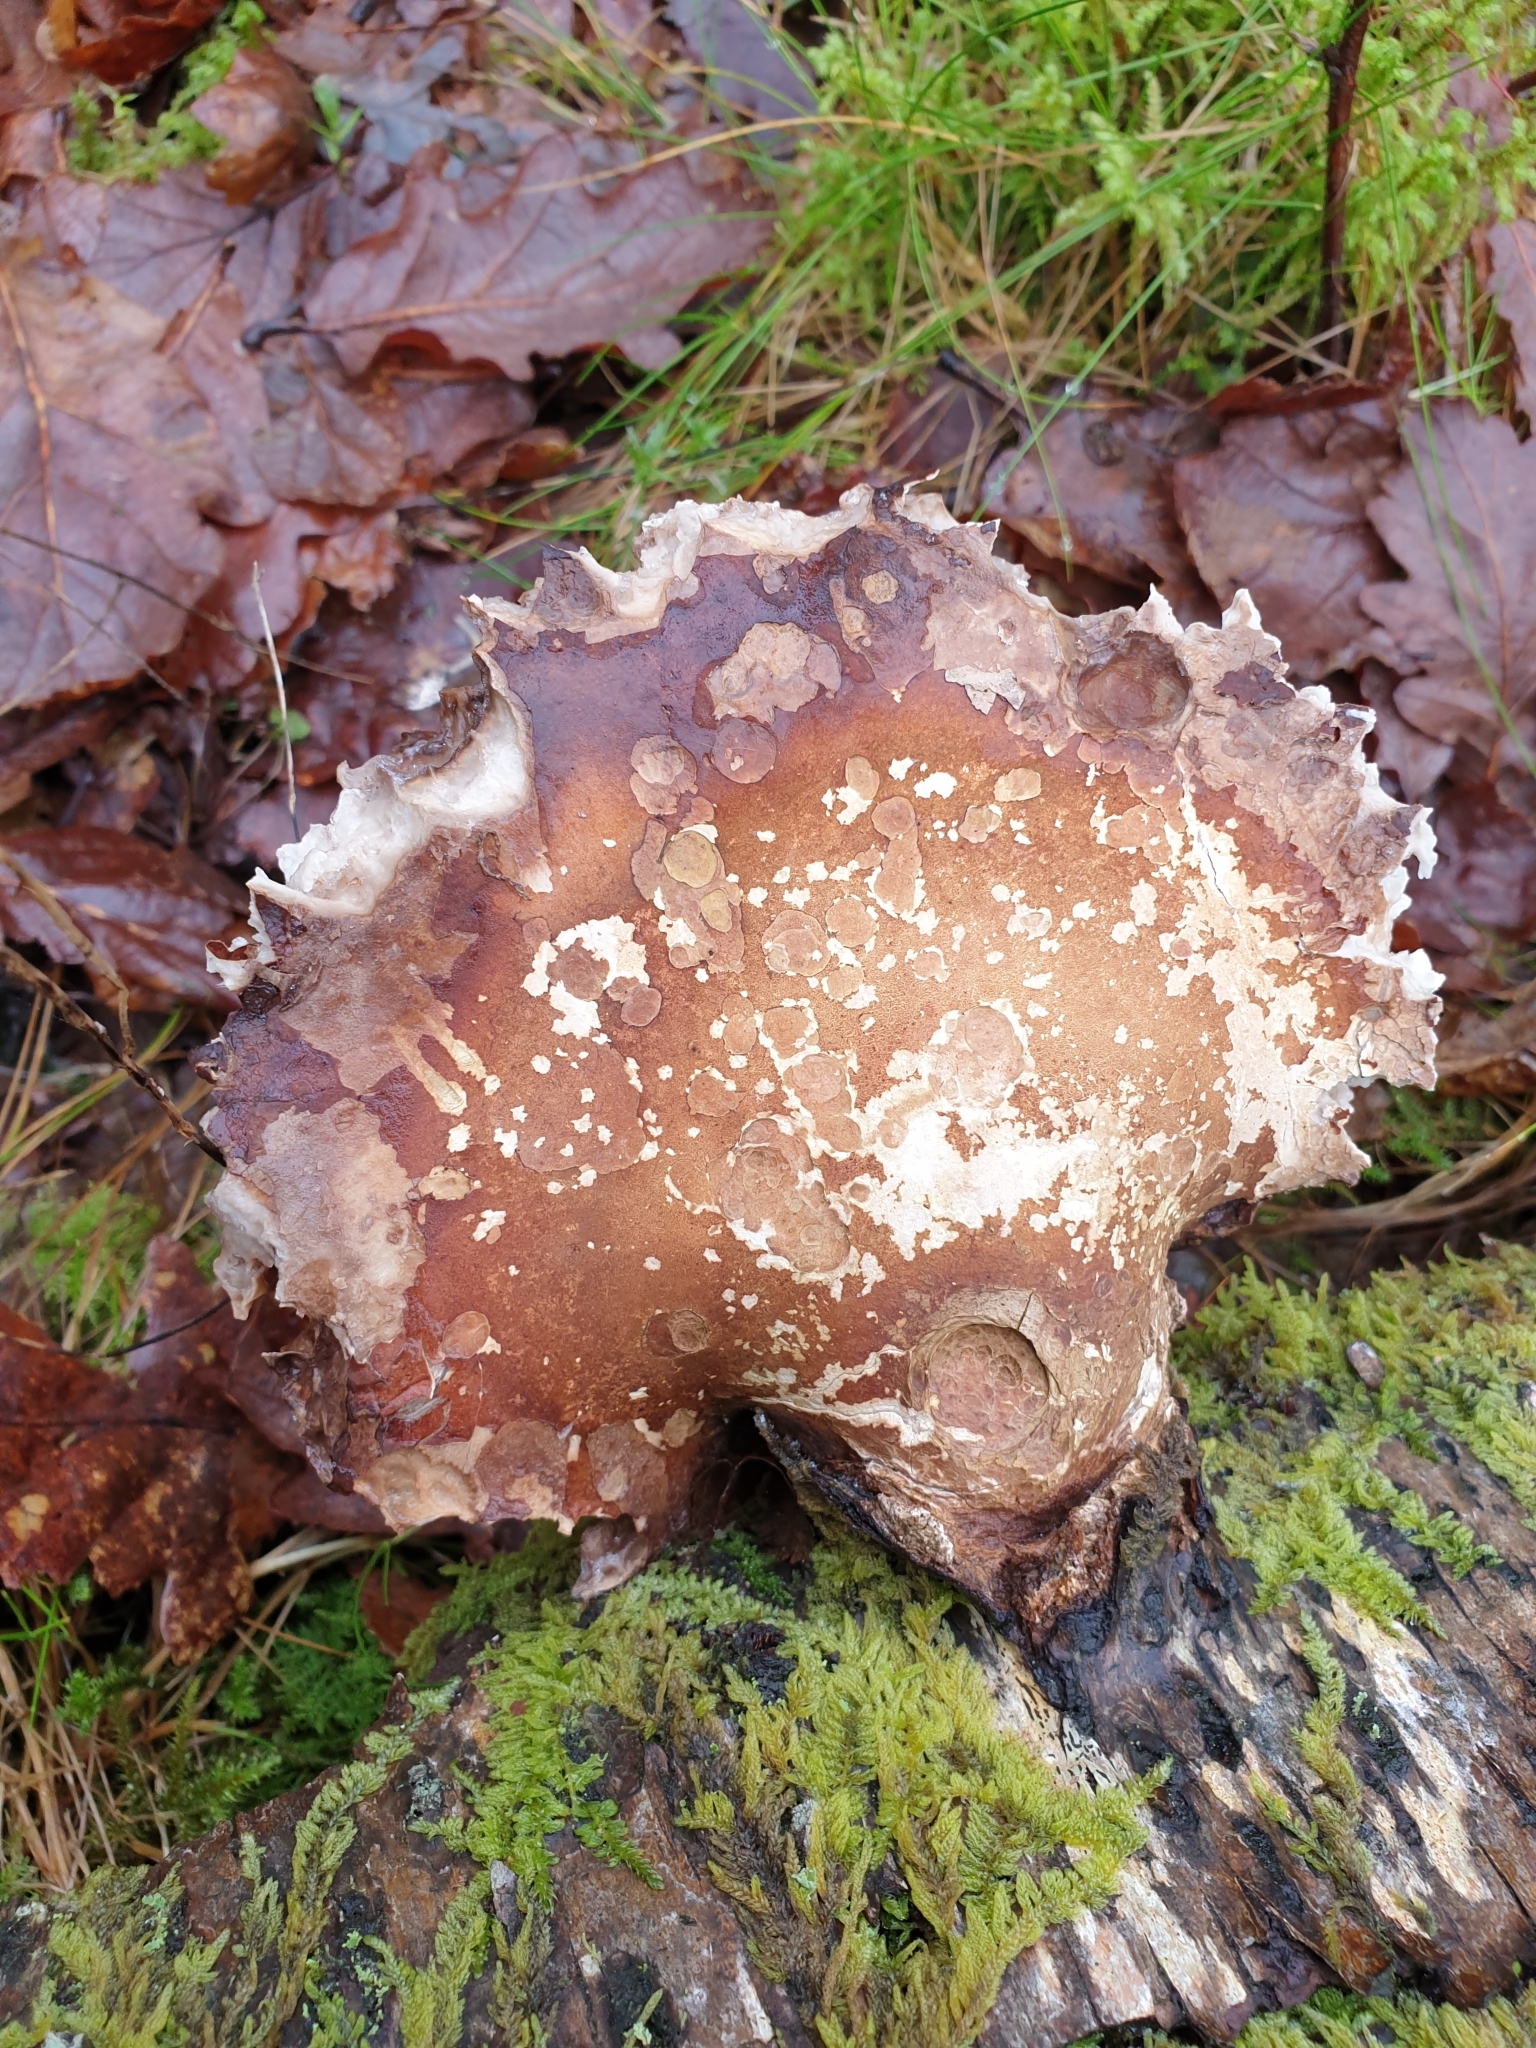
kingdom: Fungi
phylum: Basidiomycota
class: Agaricomycetes
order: Polyporales
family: Fomitopsidaceae
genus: Fomitopsis
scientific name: Fomitopsis betulina
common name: Birch polypore
